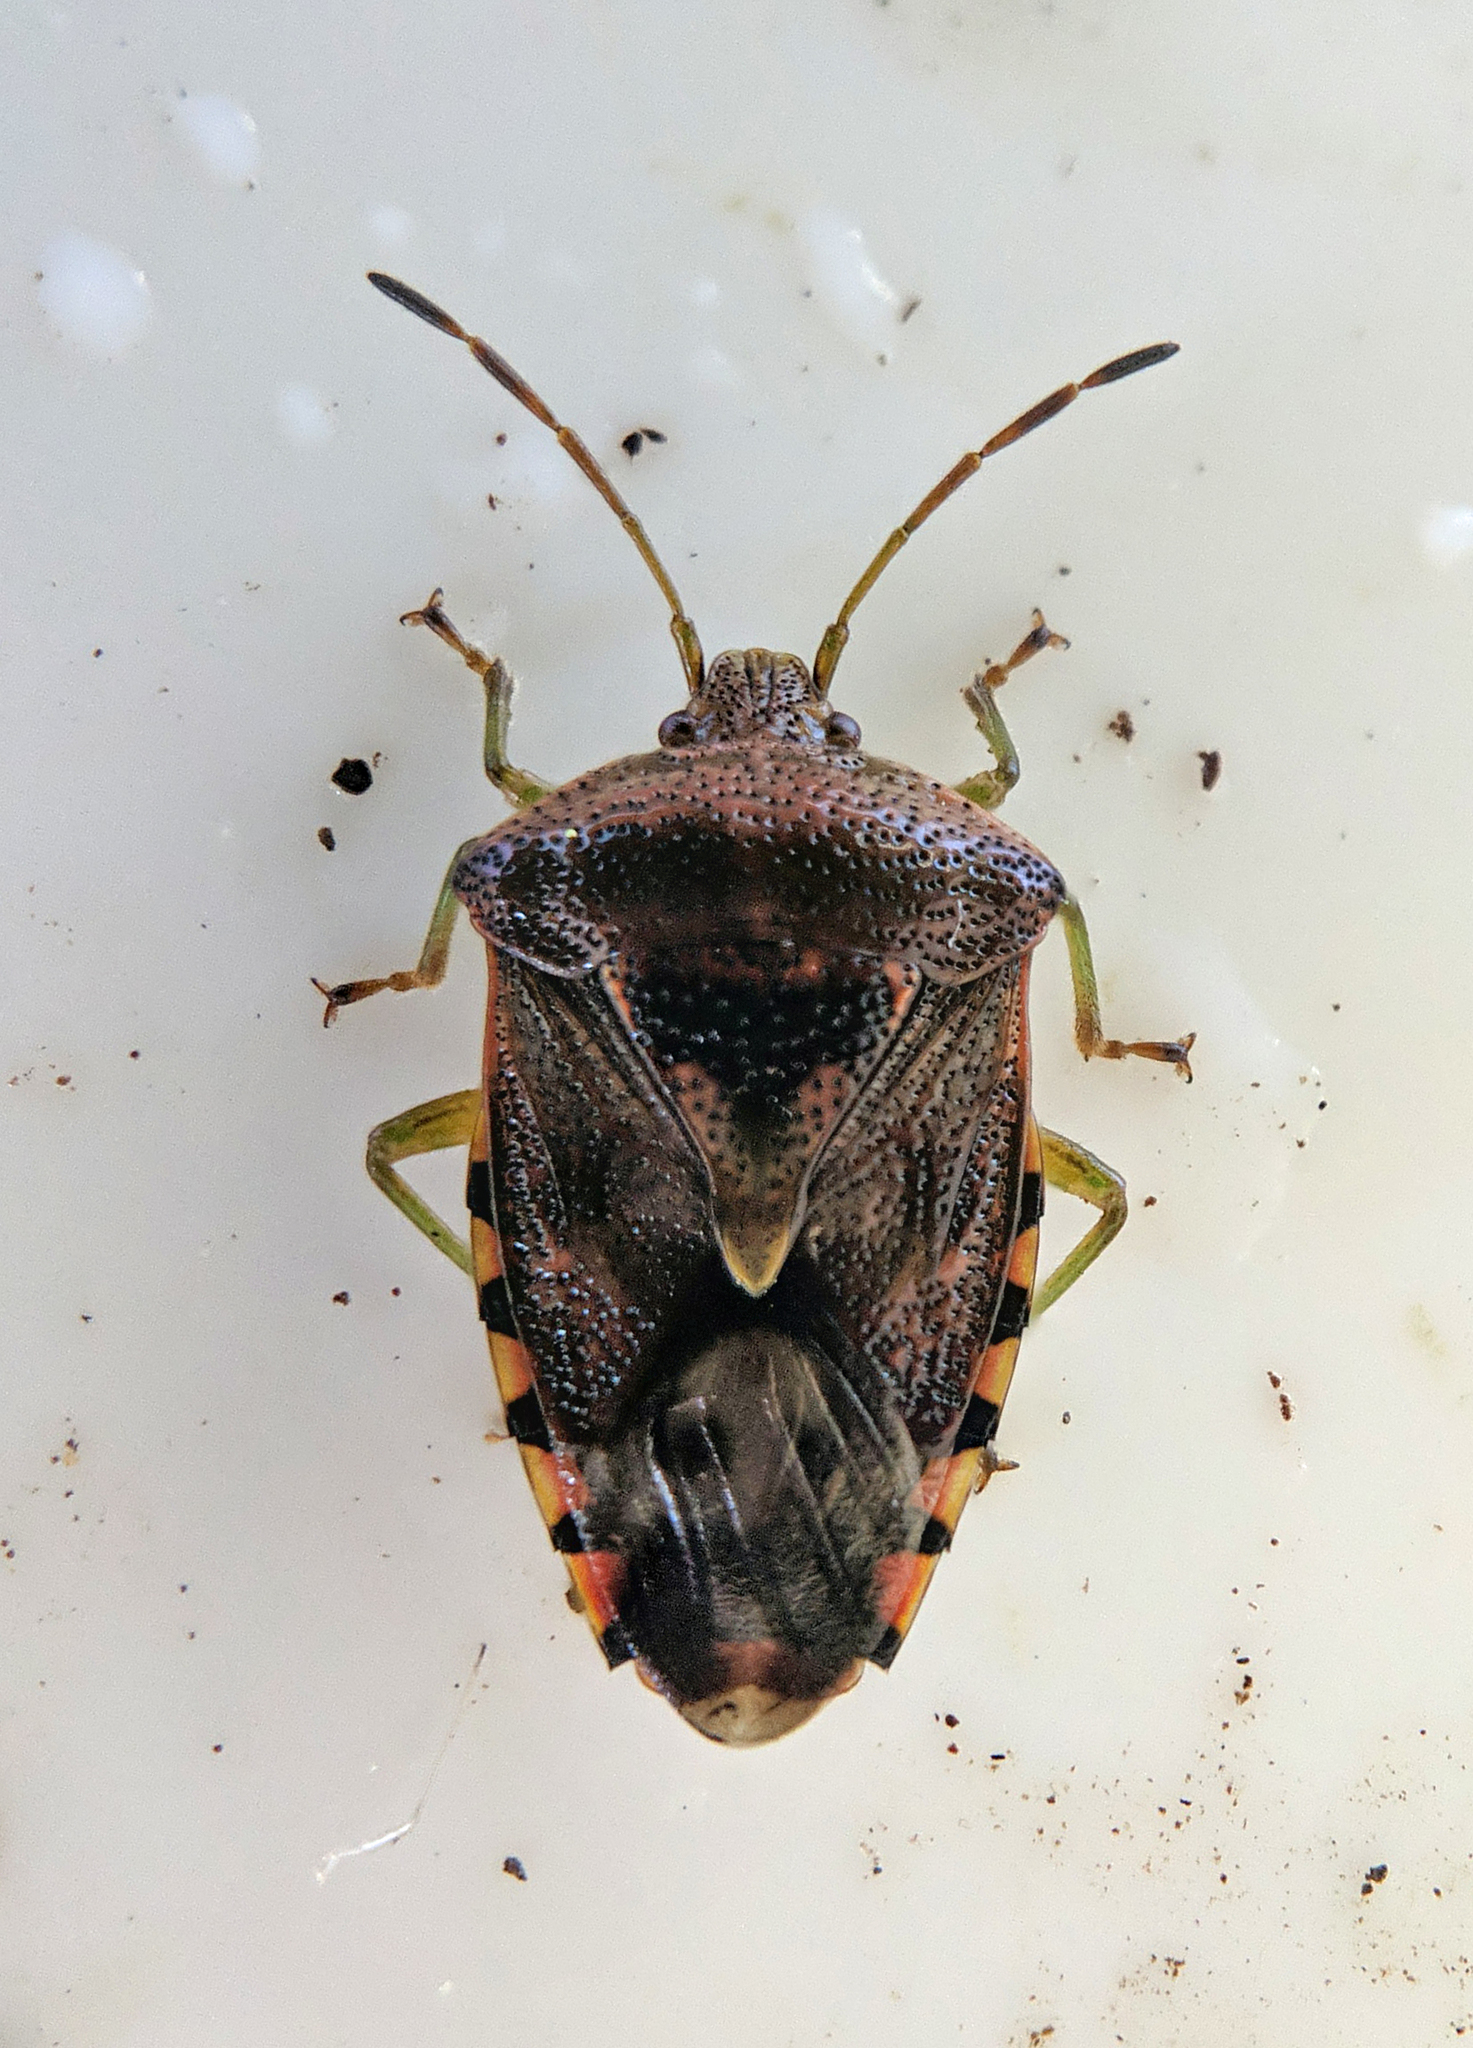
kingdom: Animalia
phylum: Arthropoda
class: Insecta
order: Hemiptera
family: Acanthosomatidae
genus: Elasmucha
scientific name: Elasmucha grisea
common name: Parent bug
